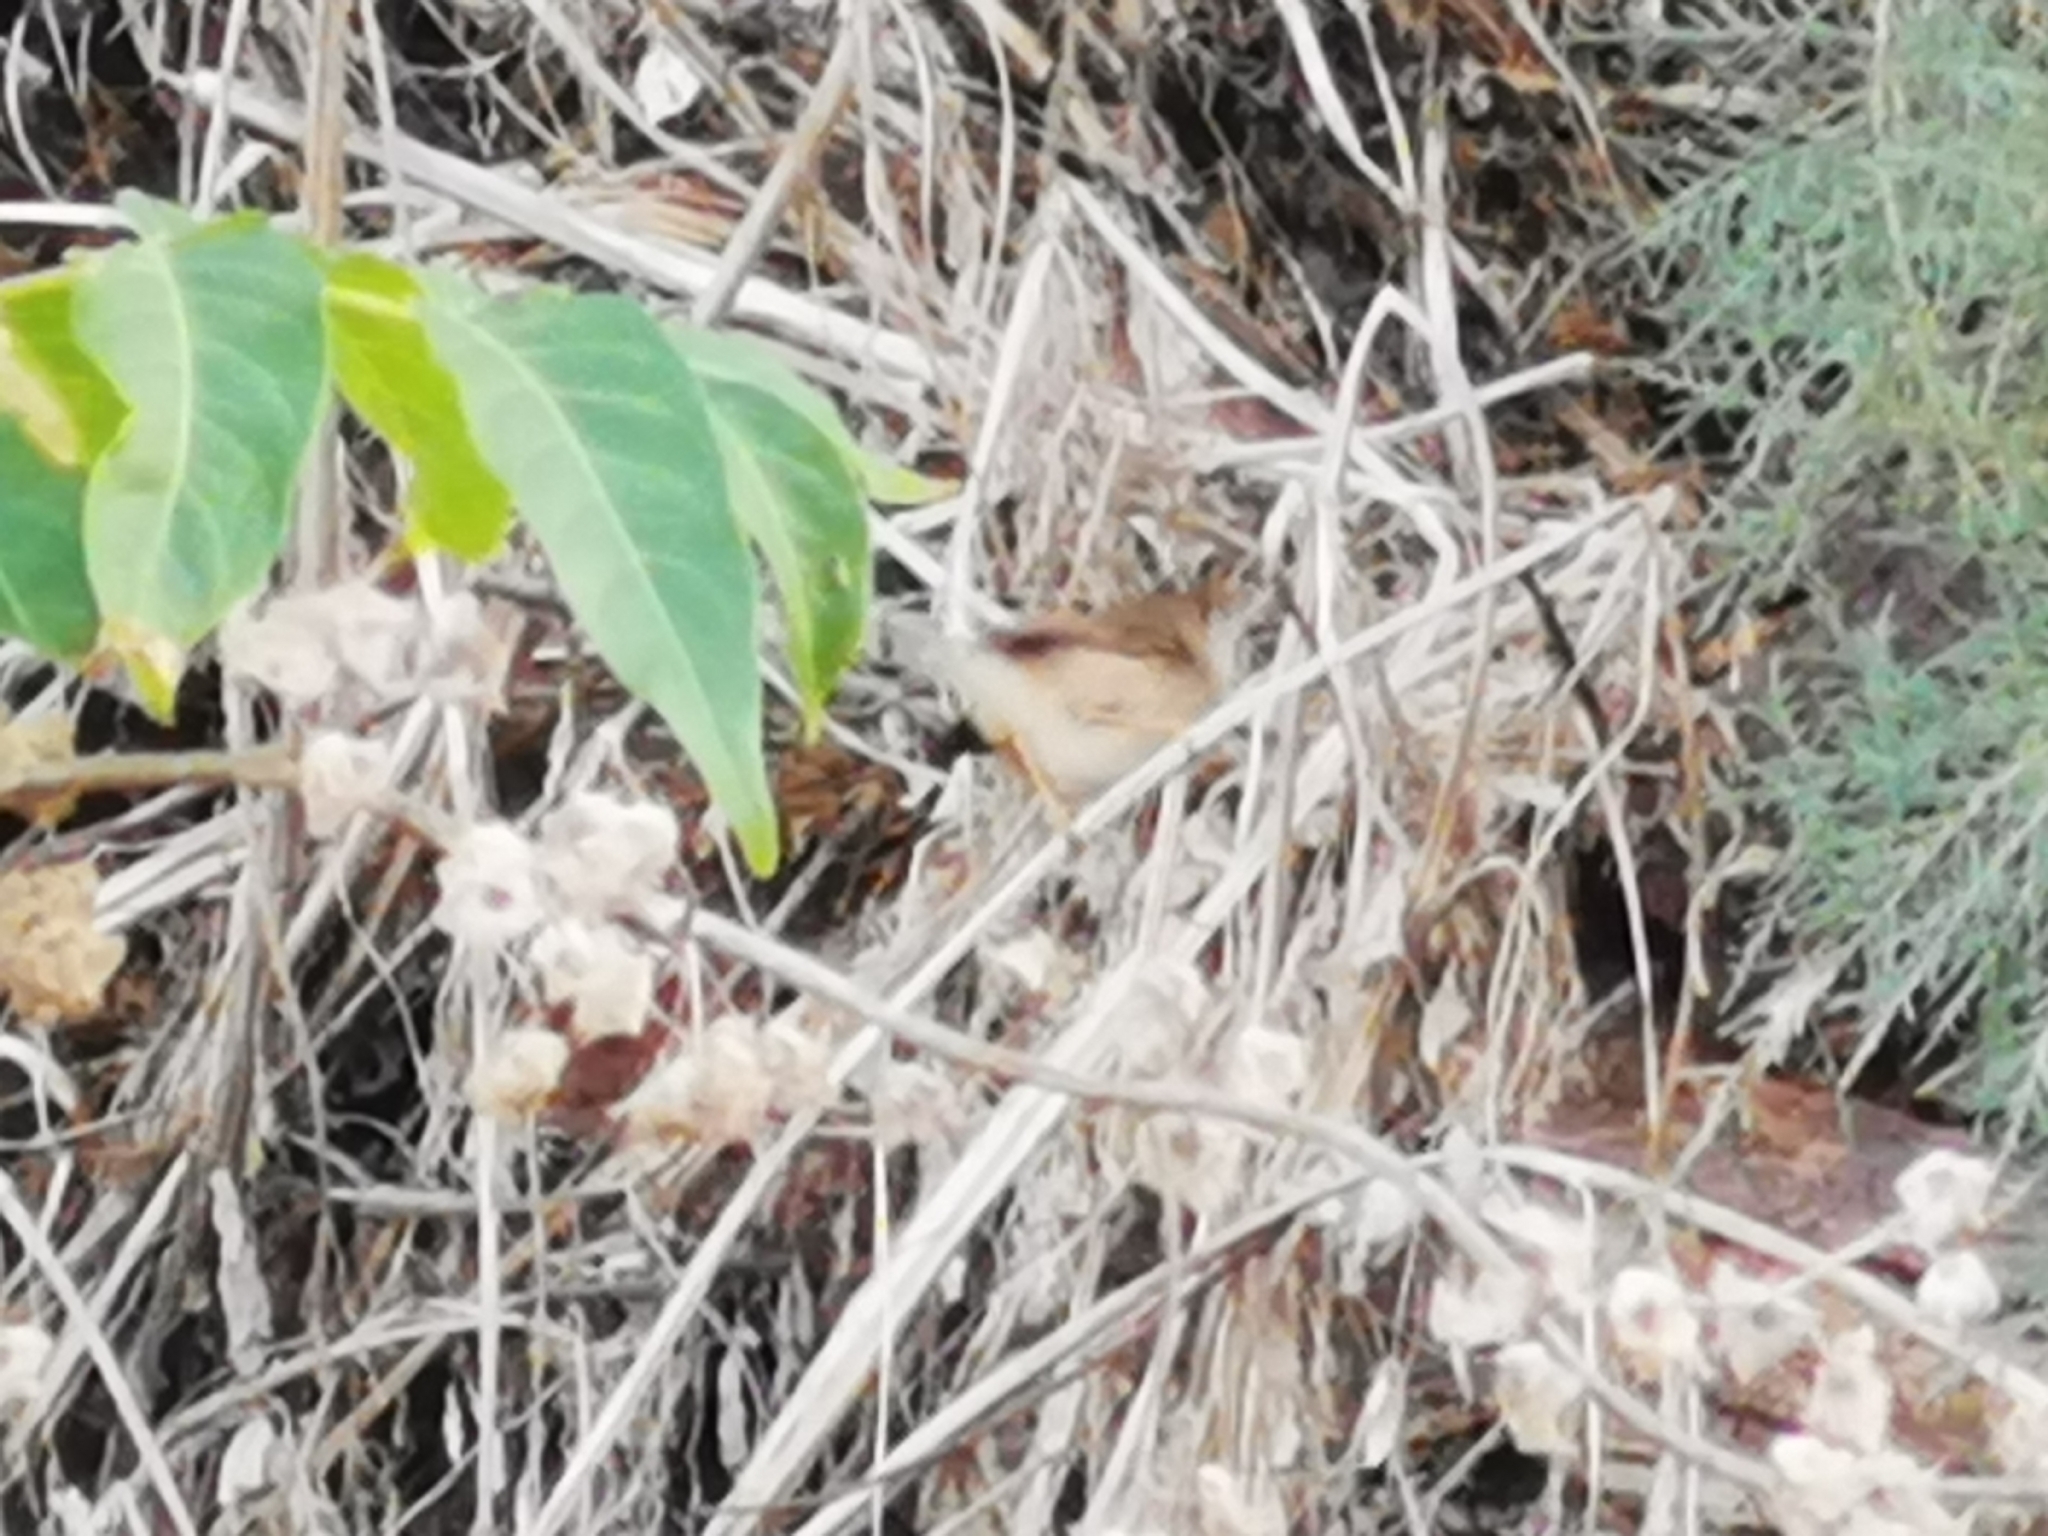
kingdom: Animalia
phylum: Chordata
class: Aves
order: Passeriformes
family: Cisticolidae
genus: Prinia
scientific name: Prinia gracilis
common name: Graceful prinia
